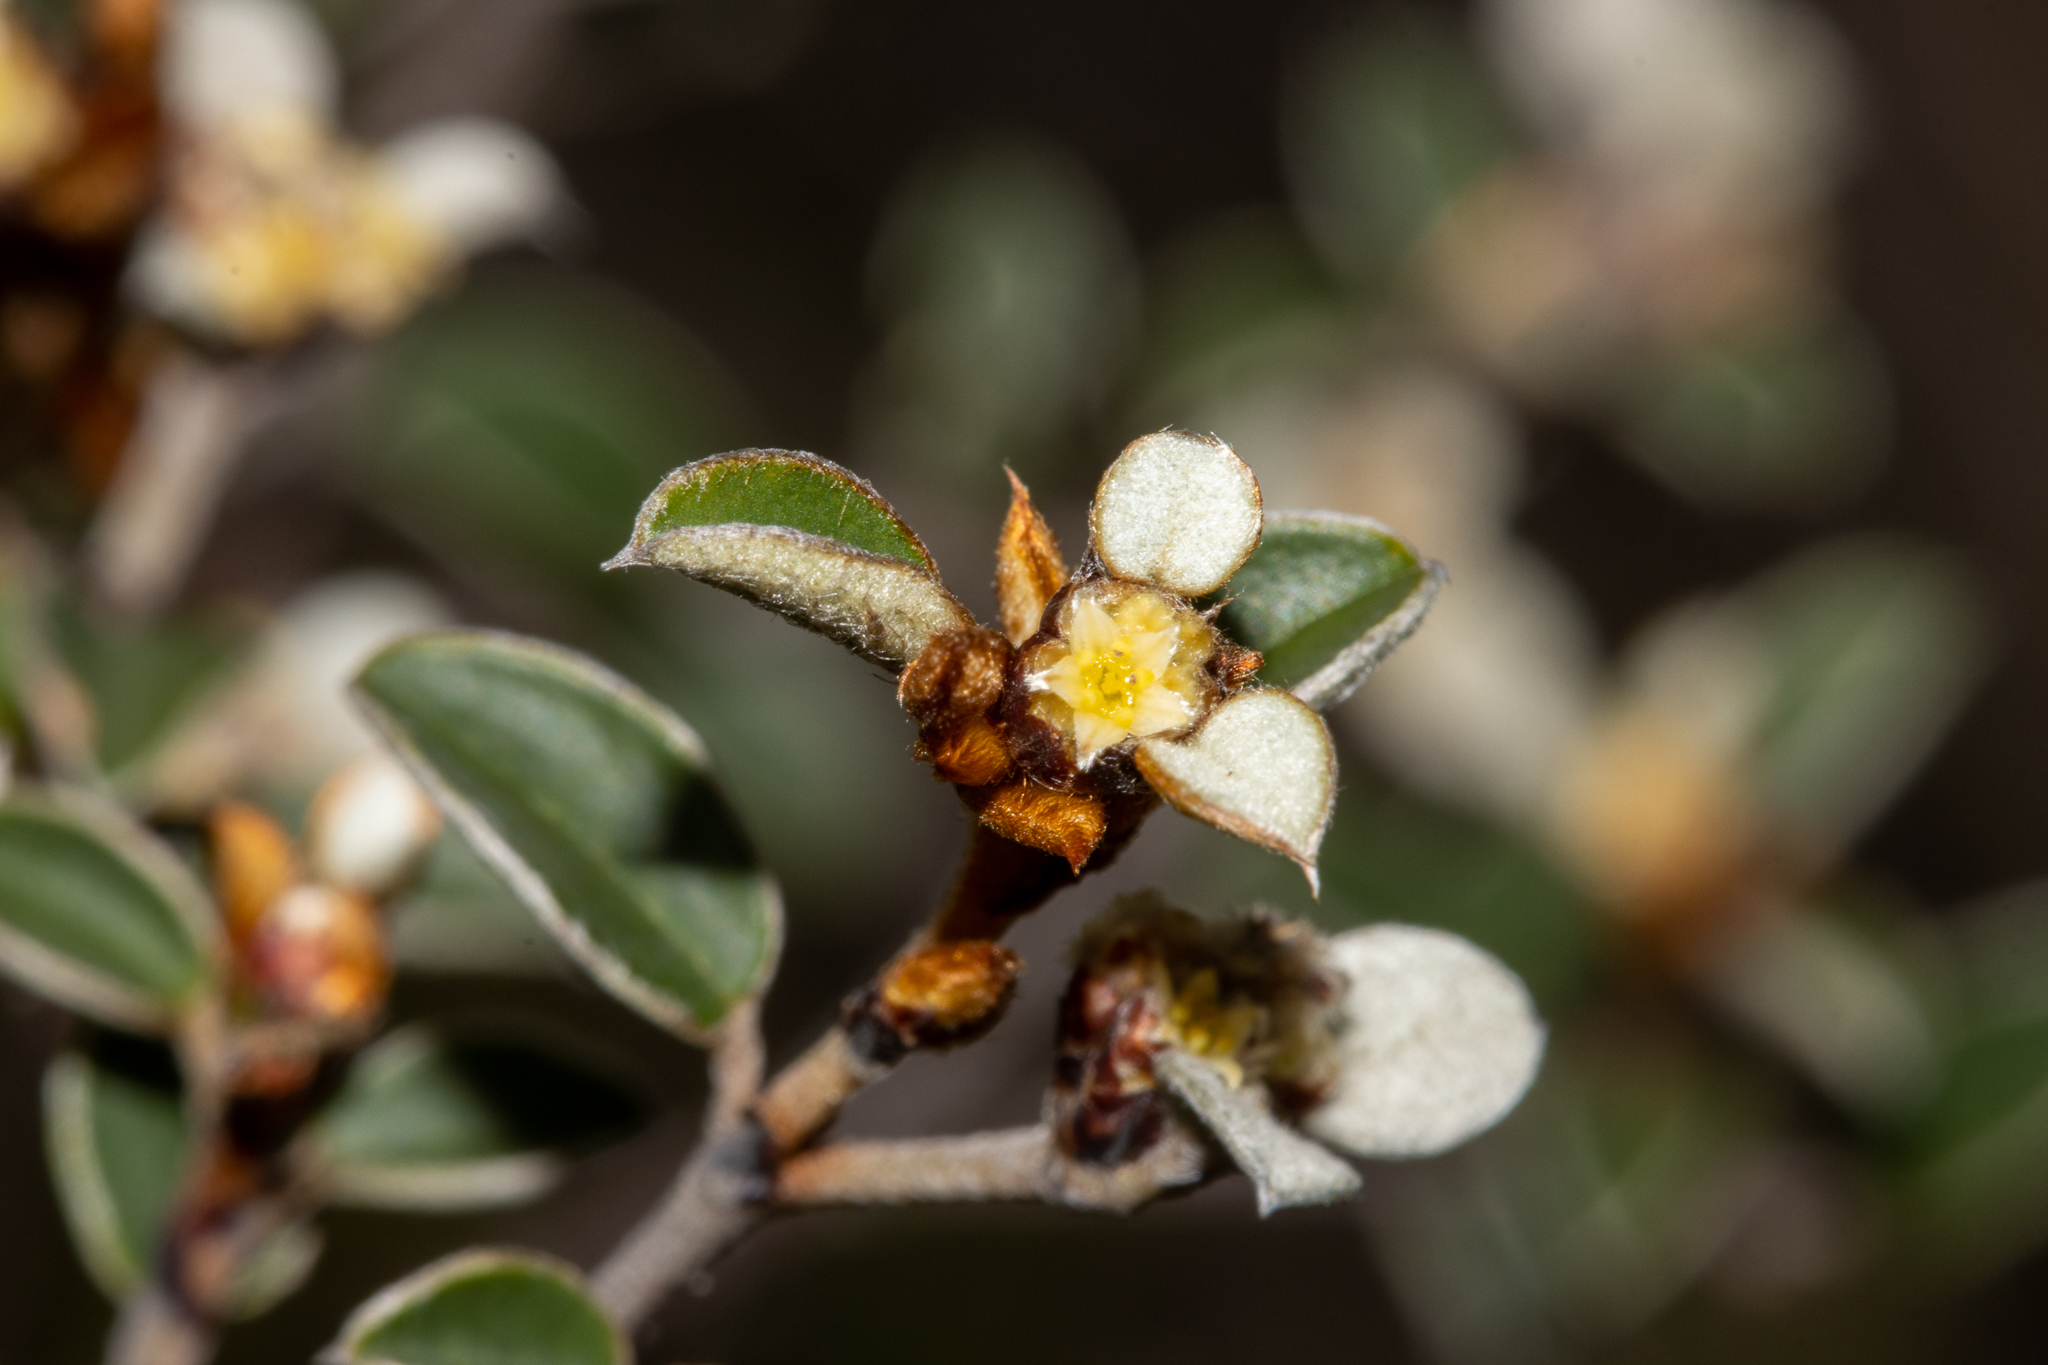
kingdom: Plantae
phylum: Tracheophyta
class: Magnoliopsida
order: Rosales
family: Rhamnaceae
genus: Spyridium
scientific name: Spyridium thymifolium
